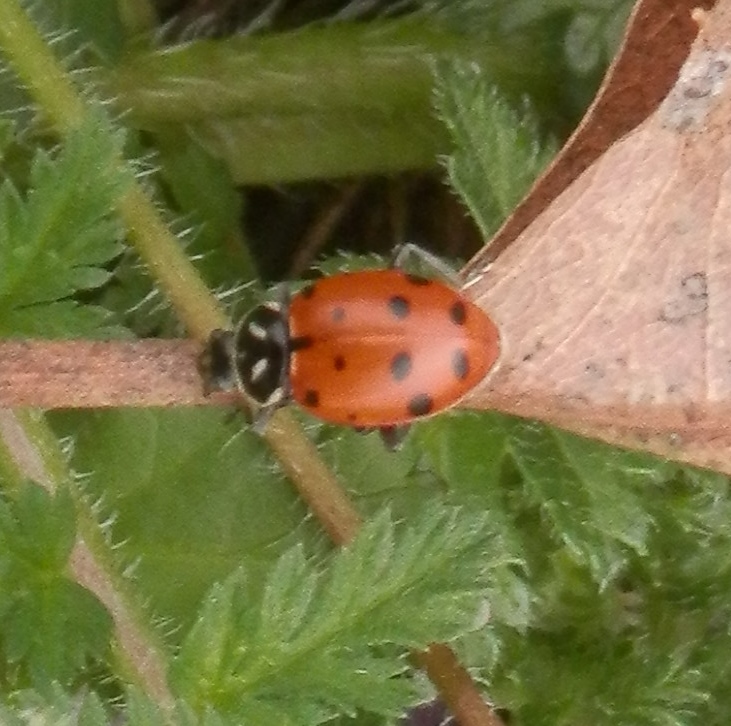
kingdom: Animalia
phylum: Arthropoda
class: Insecta
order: Coleoptera
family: Coccinellidae
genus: Hippodamia
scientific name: Hippodamia convergens
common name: Convergent lady beetle
